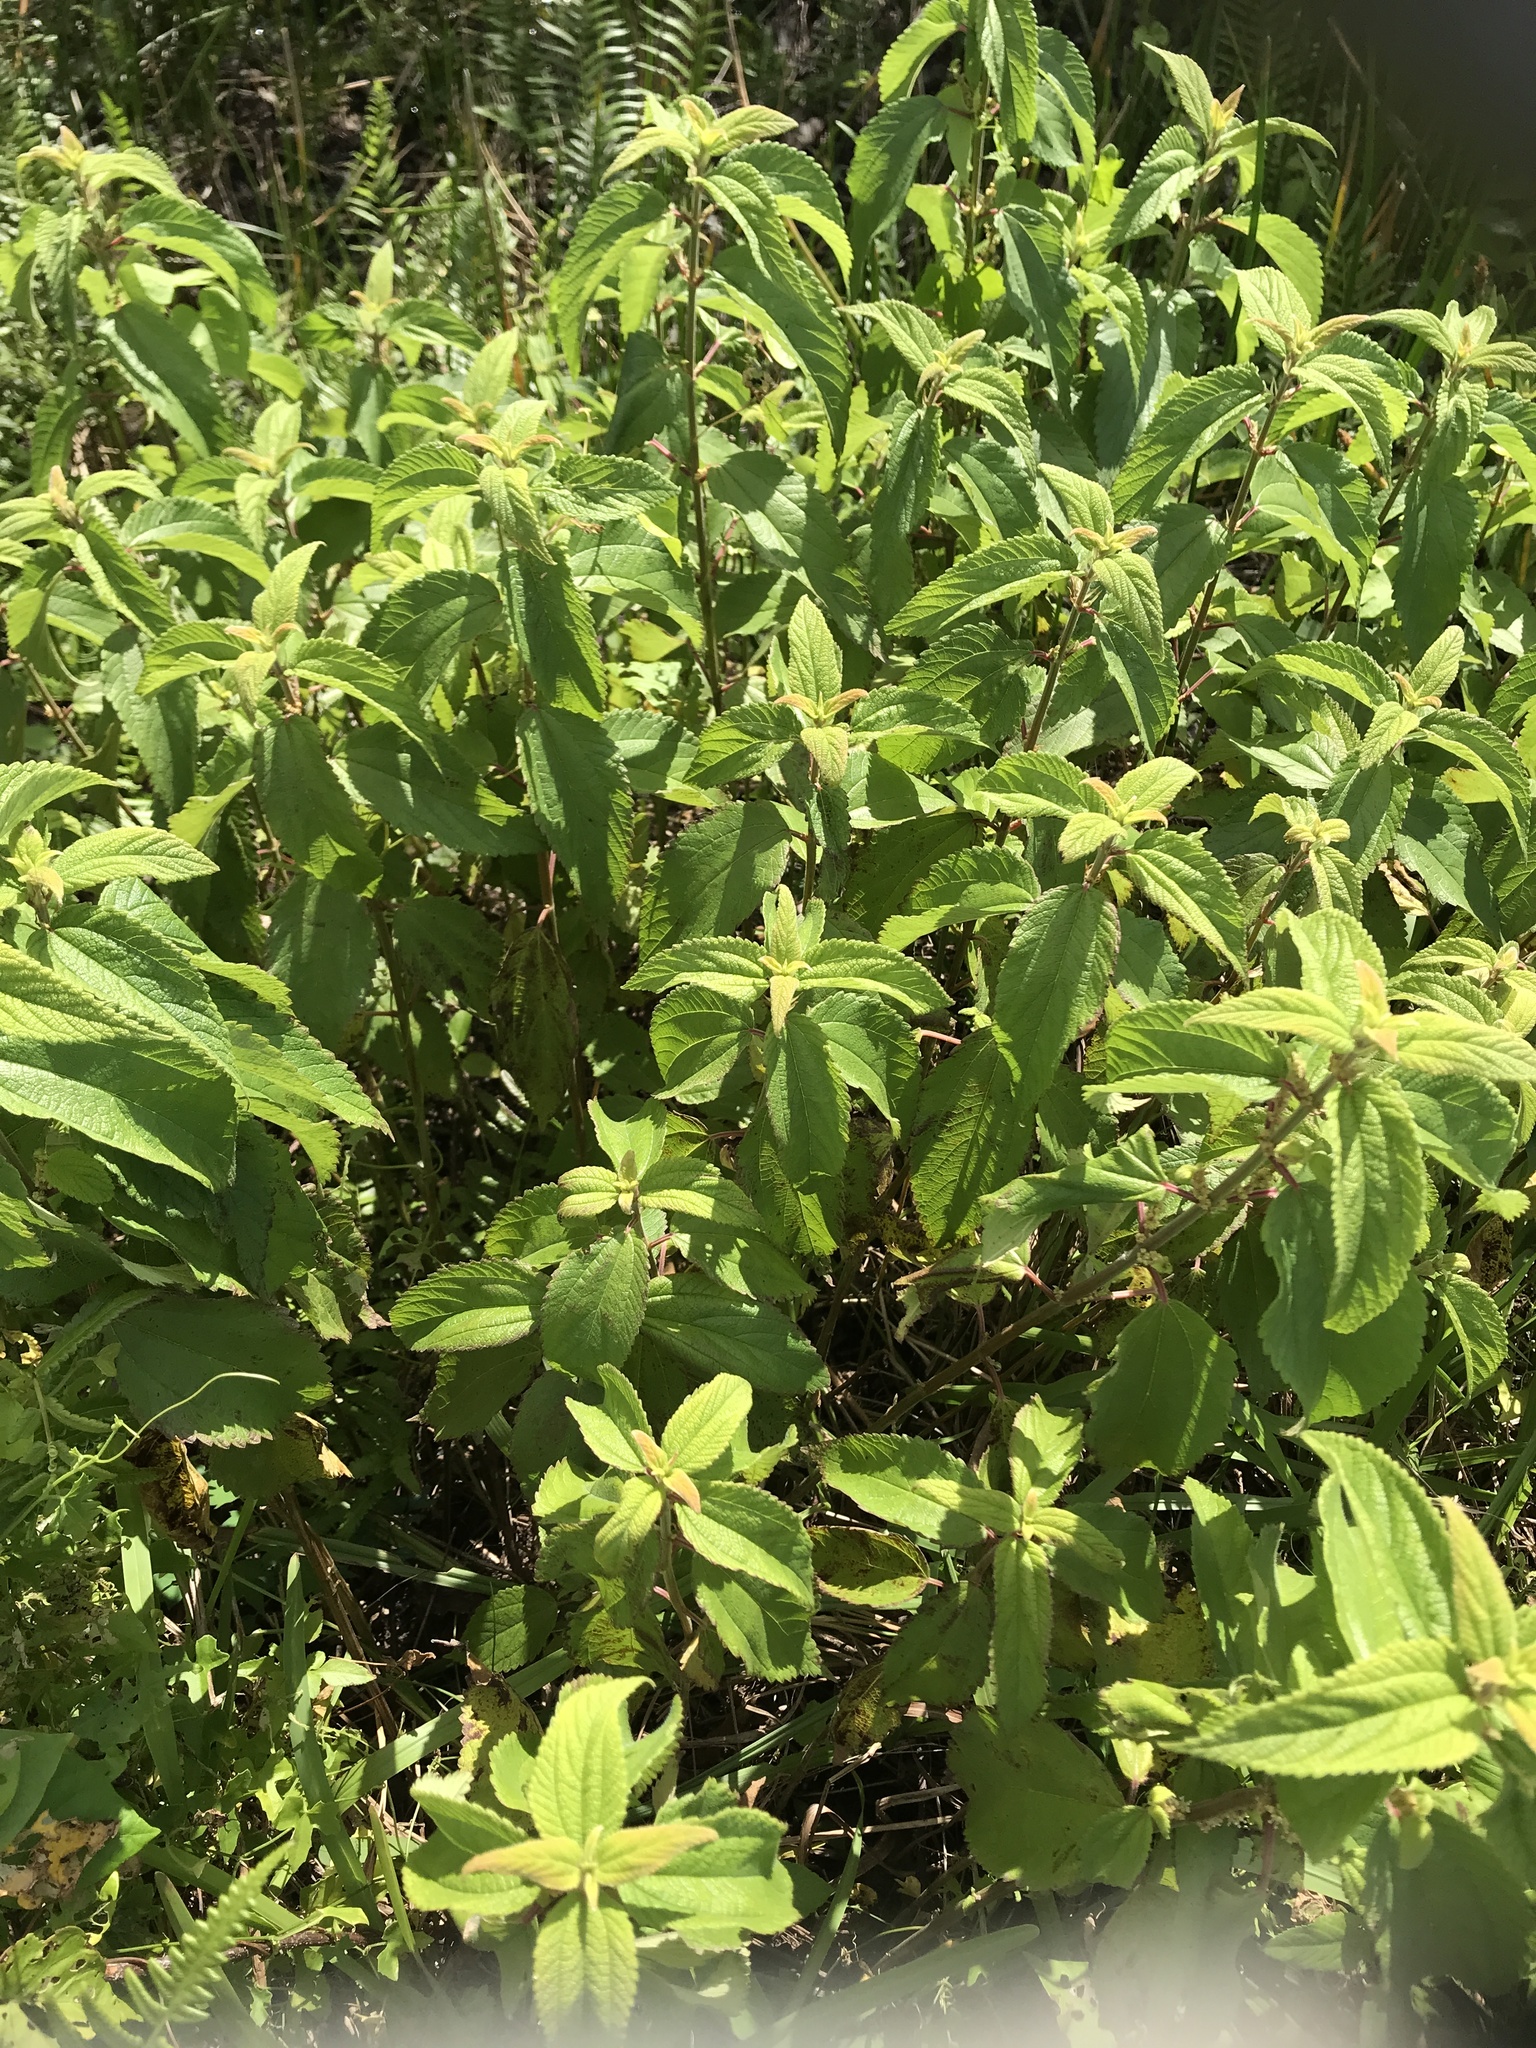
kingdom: Plantae
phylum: Tracheophyta
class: Magnoliopsida
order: Rosales
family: Urticaceae
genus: Boehmeria
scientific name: Boehmeria cylindrica
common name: Bog-hemp
